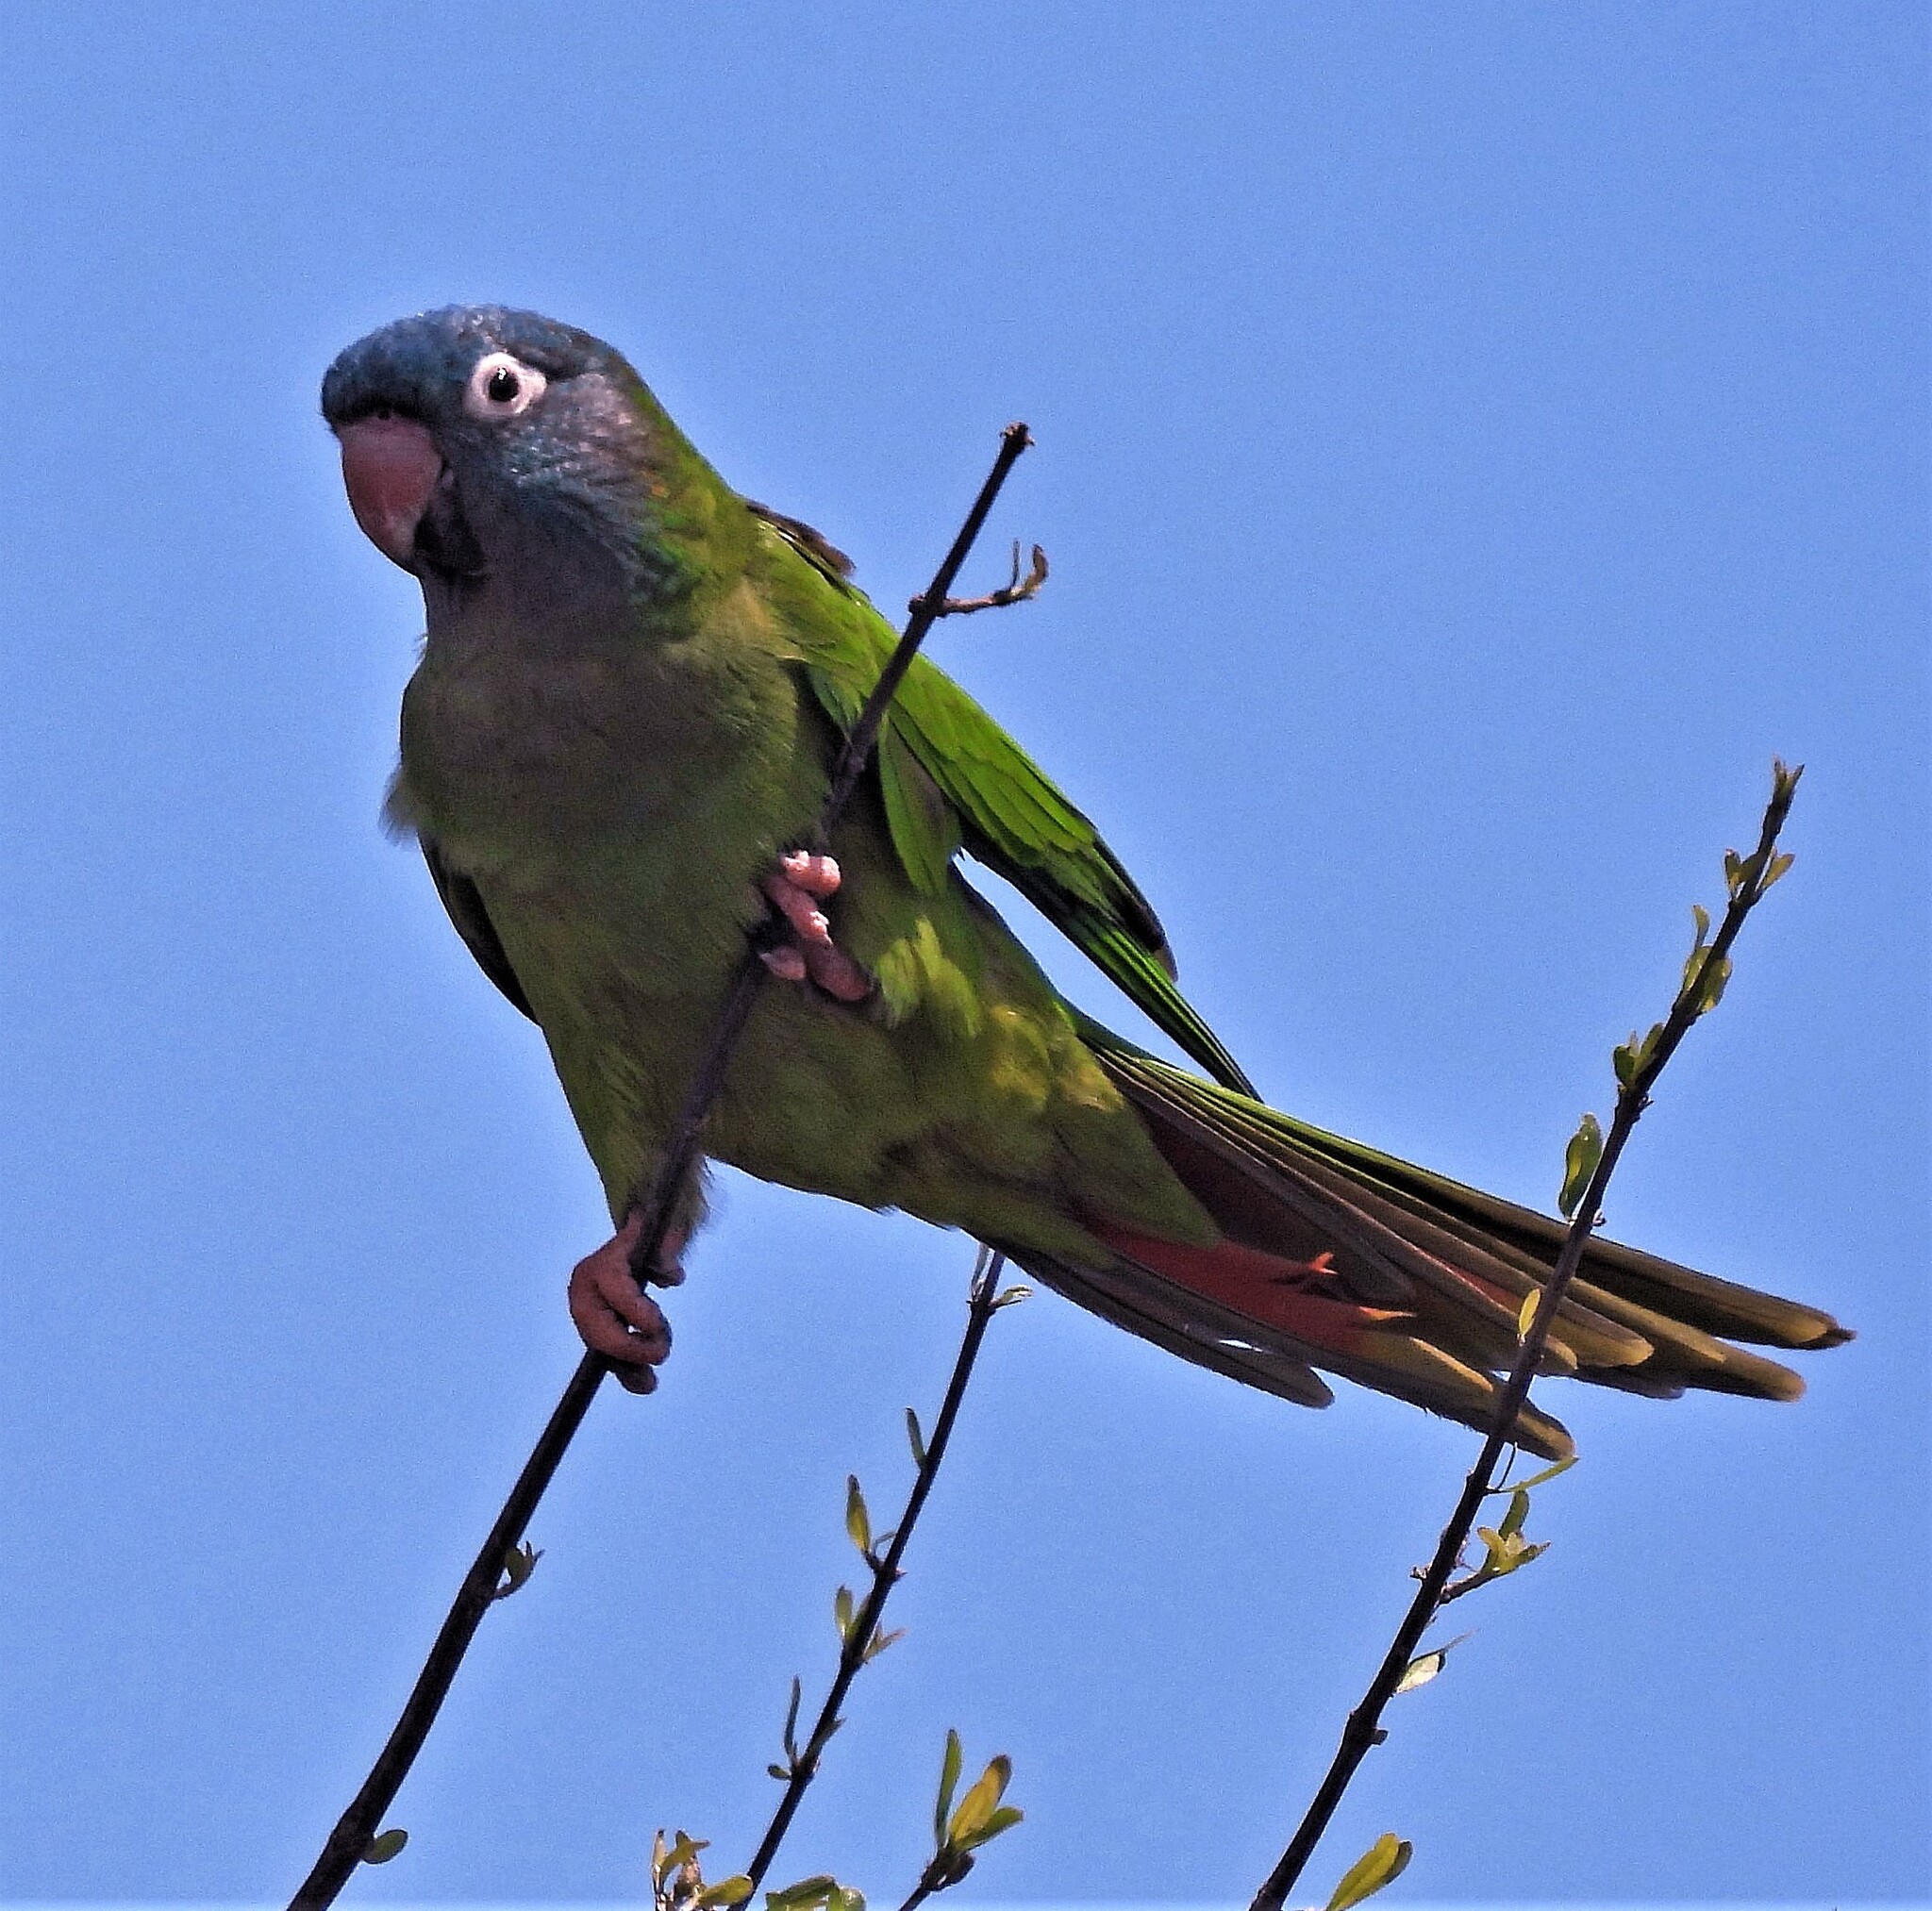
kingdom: Animalia
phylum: Chordata
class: Aves
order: Psittaciformes
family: Psittacidae
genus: Aratinga
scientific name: Aratinga acuticaudata
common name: Blue-crowned parakeet
